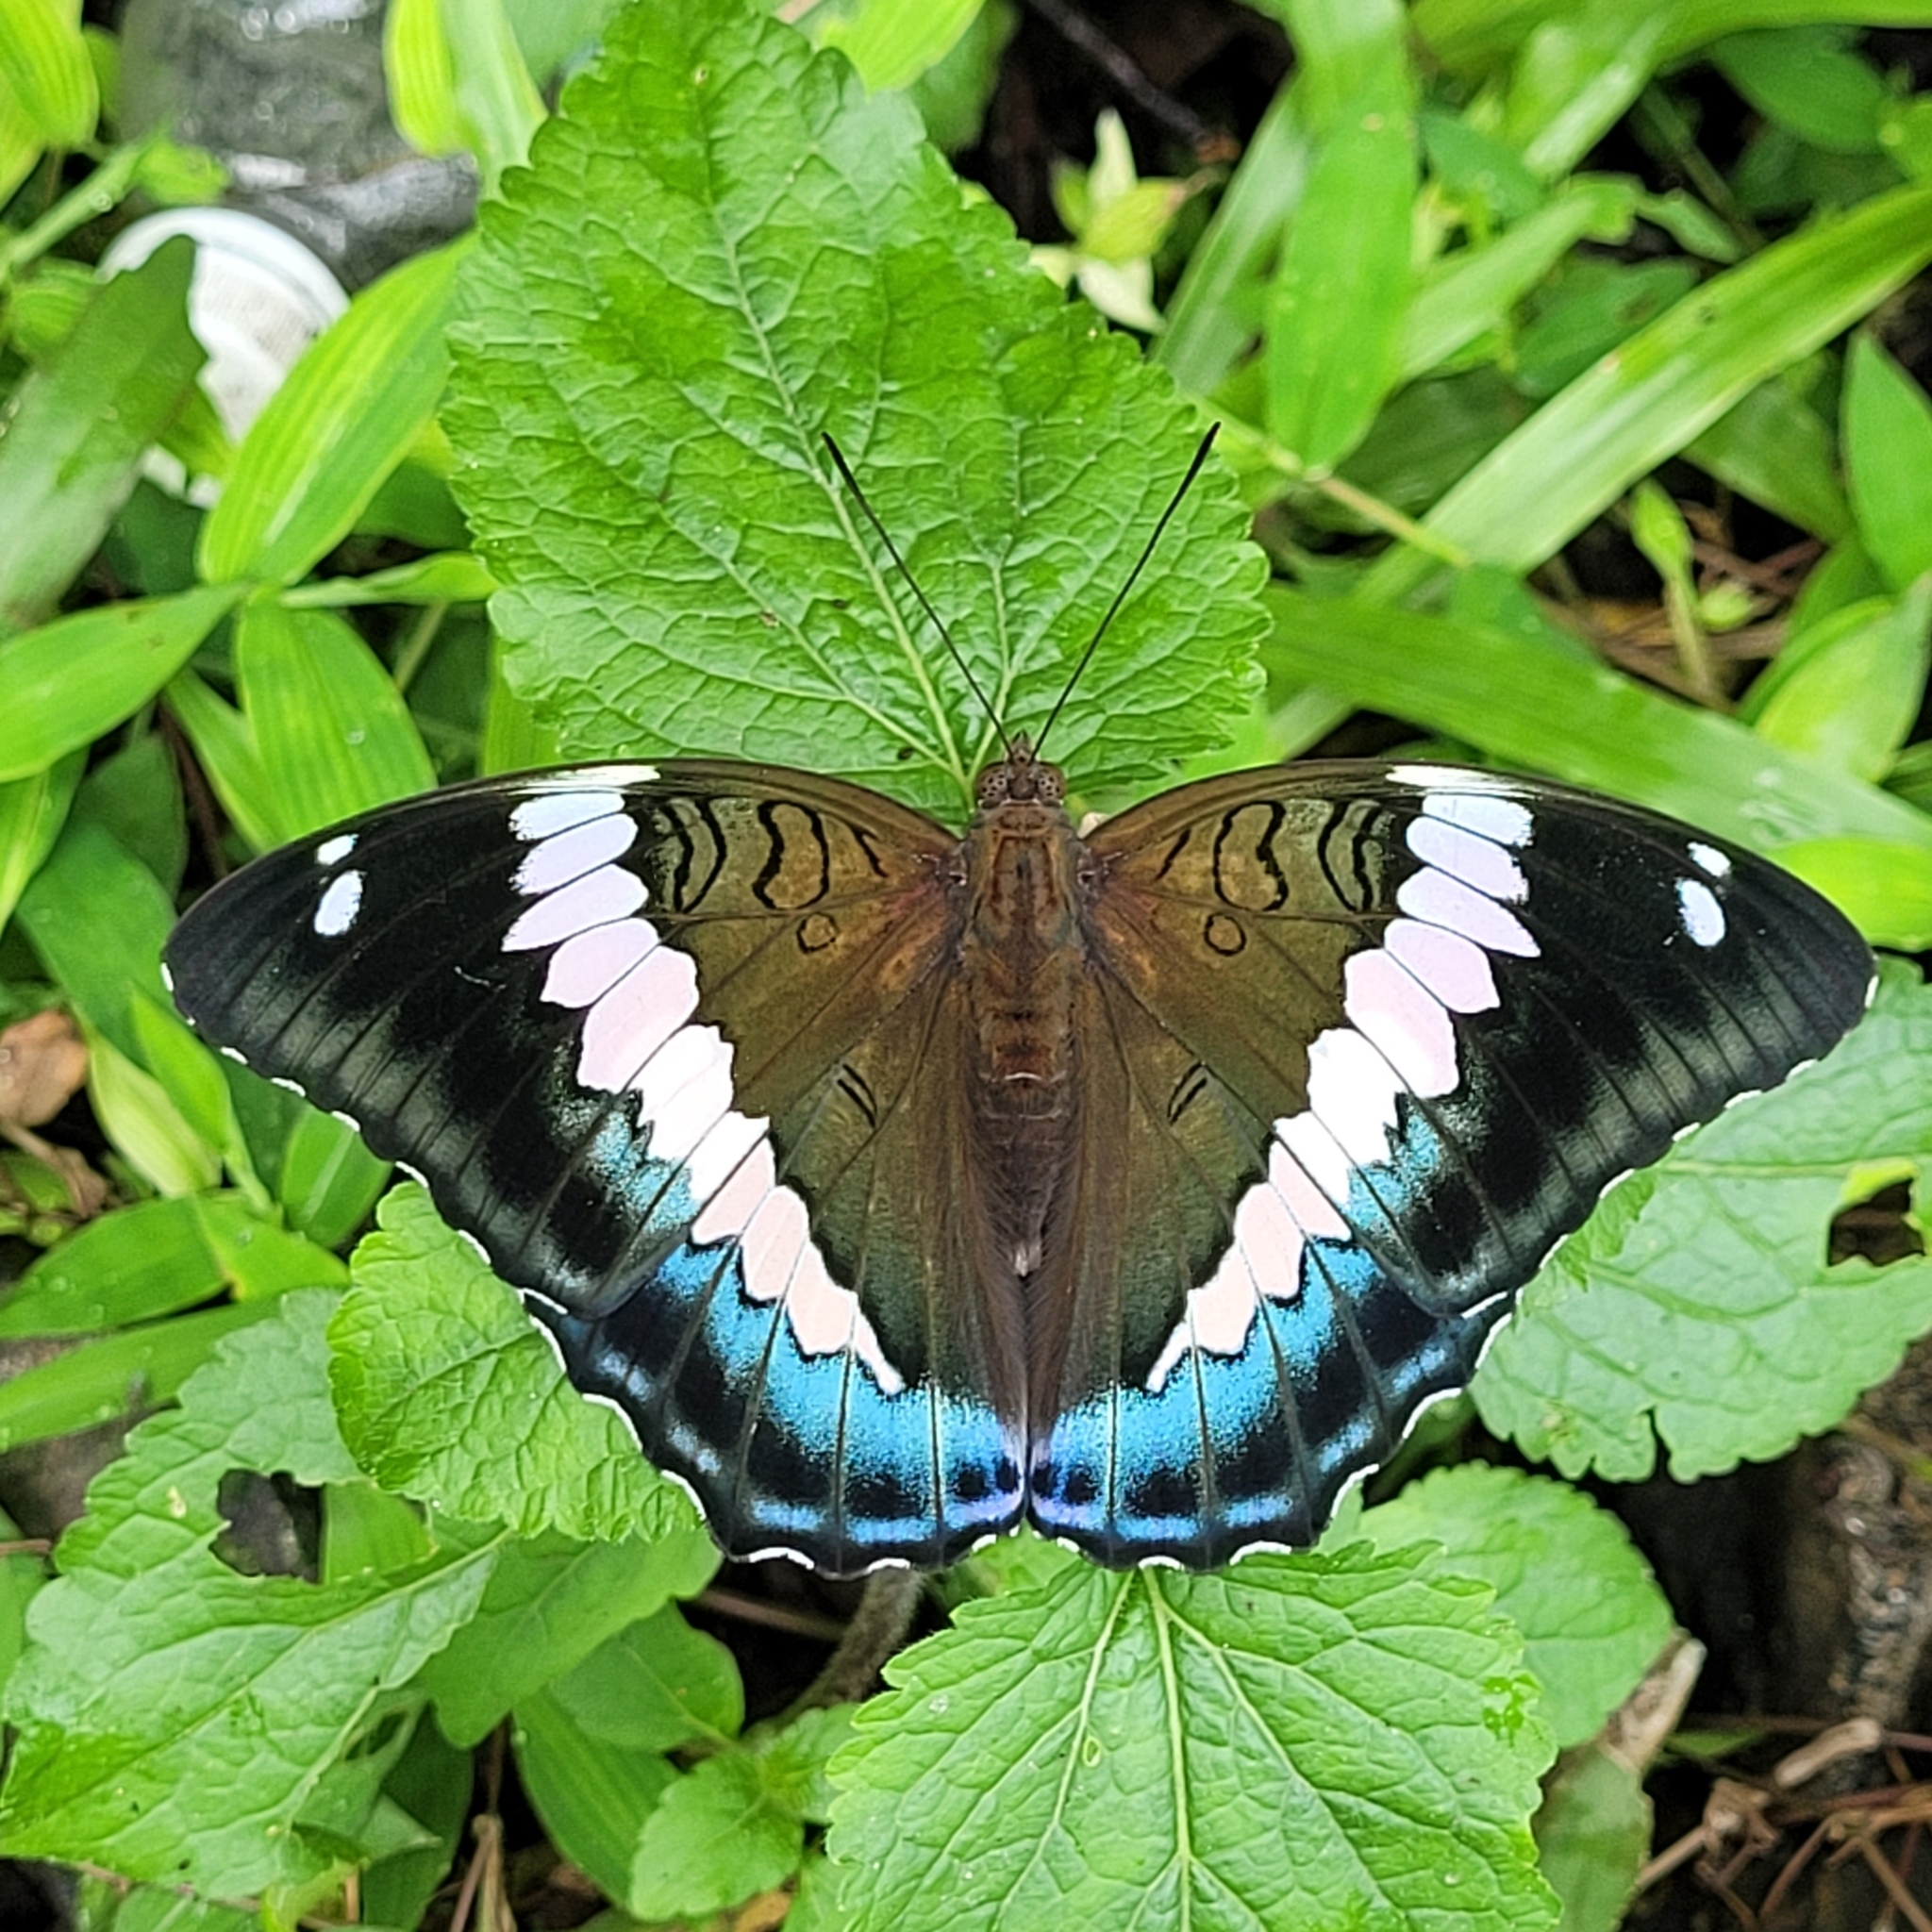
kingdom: Animalia
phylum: Arthropoda
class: Insecta
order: Lepidoptera
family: Nymphalidae
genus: Euthalia
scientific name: Euthalia durga
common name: Blue duke
